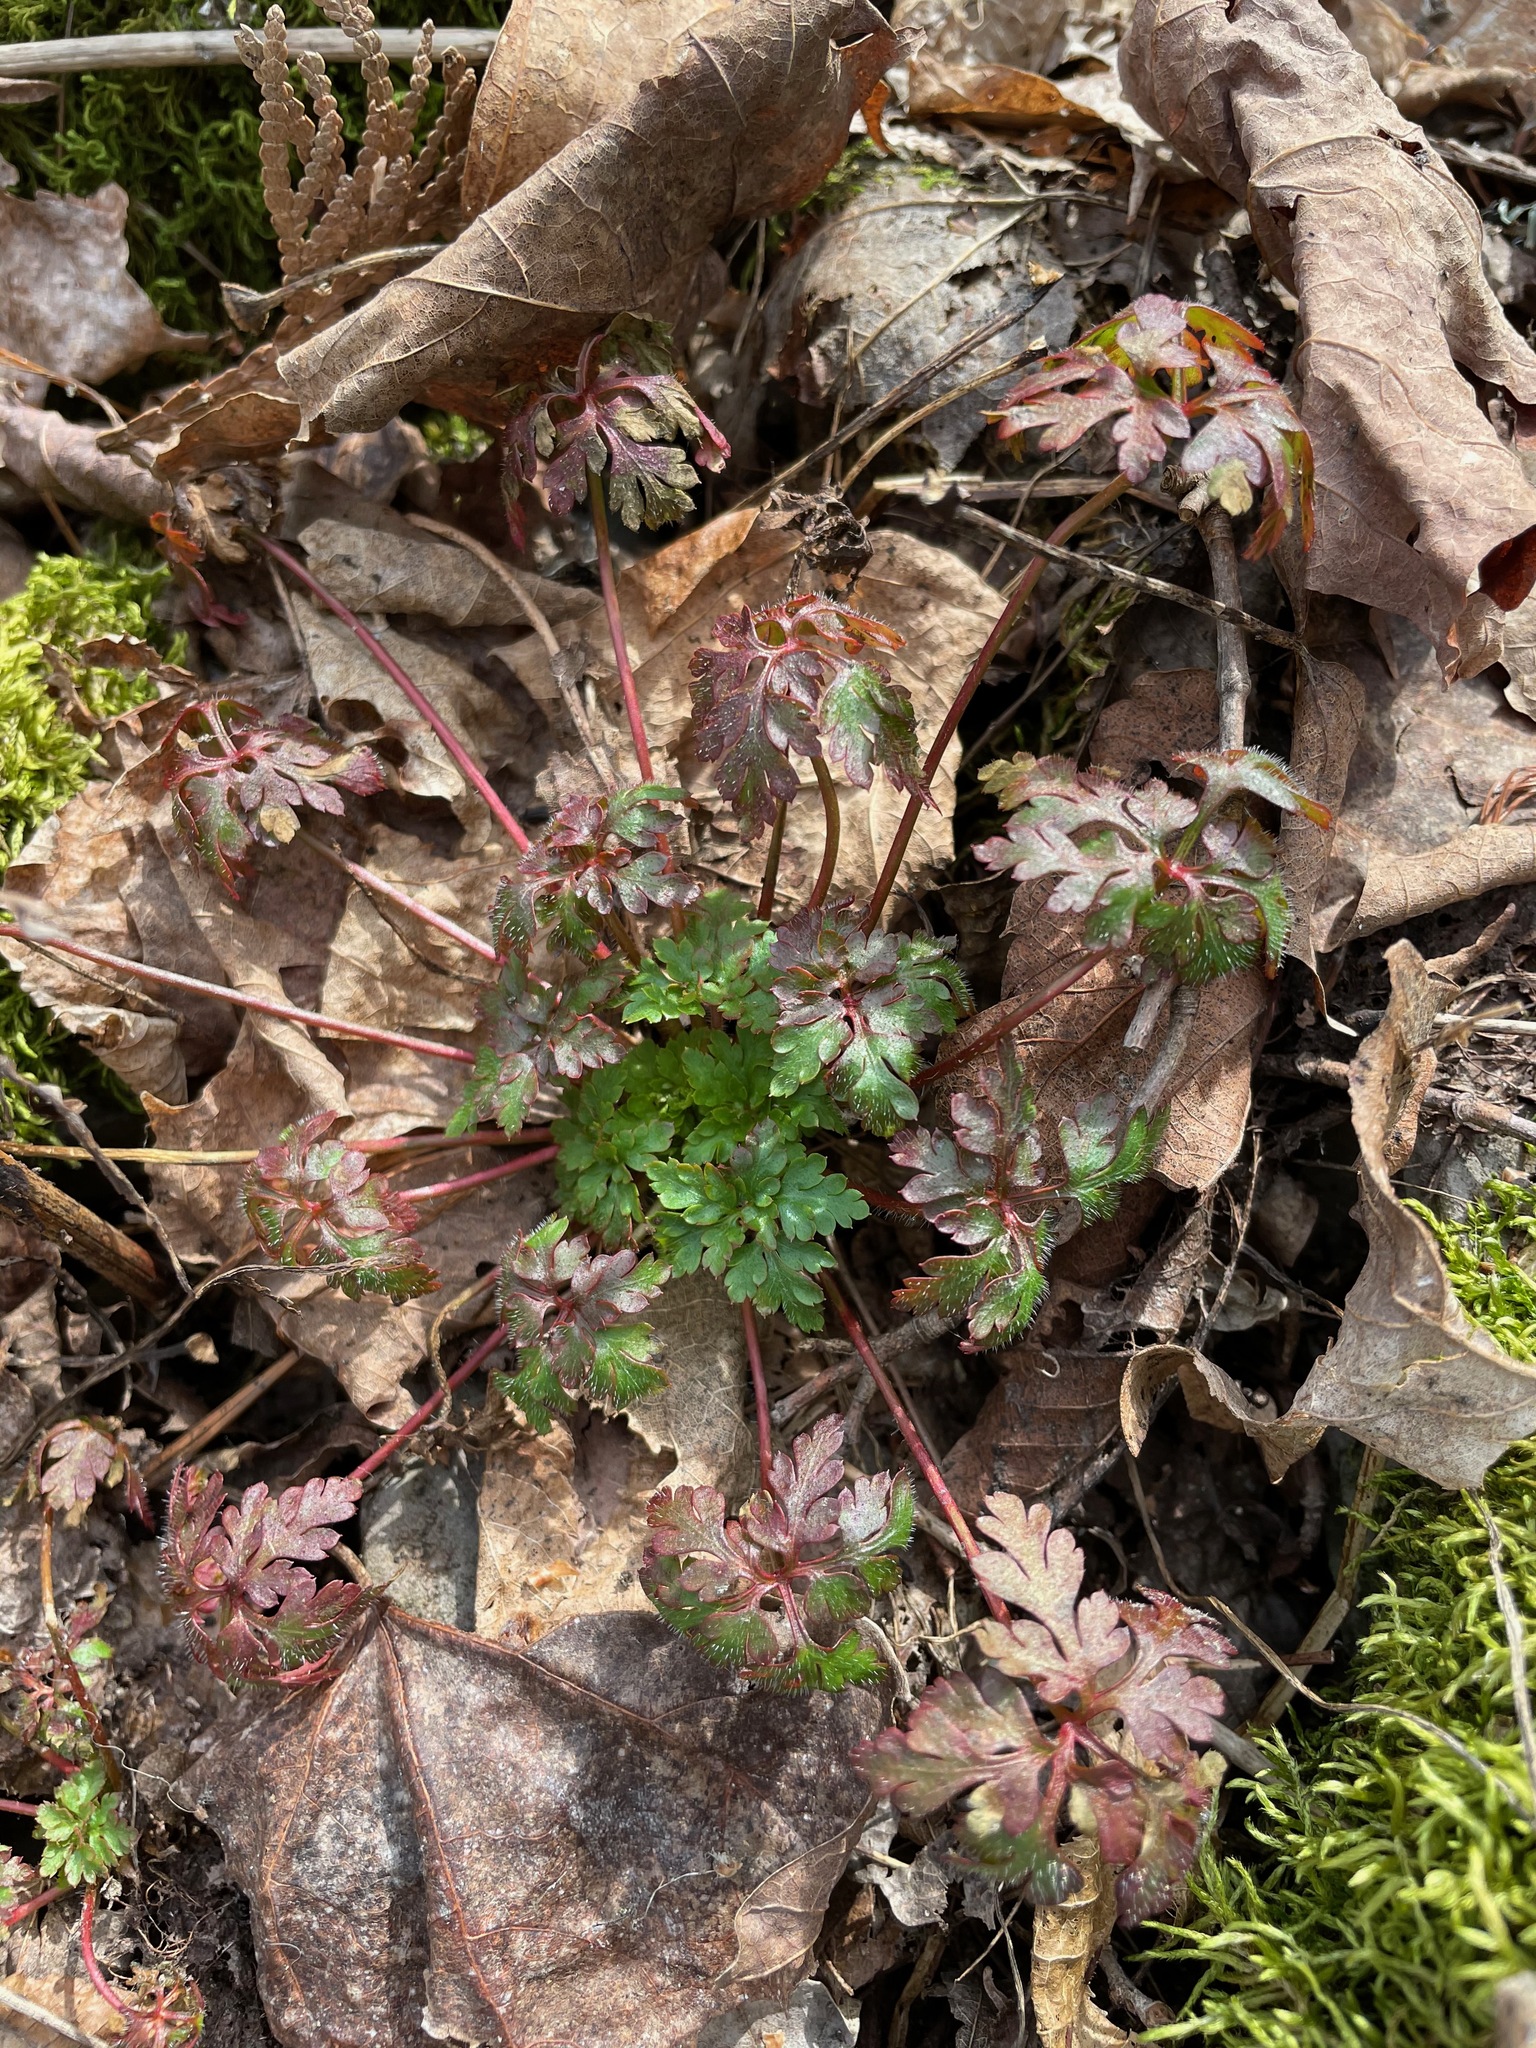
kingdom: Plantae
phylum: Tracheophyta
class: Magnoliopsida
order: Geraniales
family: Geraniaceae
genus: Geranium
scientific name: Geranium robertianum
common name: Herb-robert
